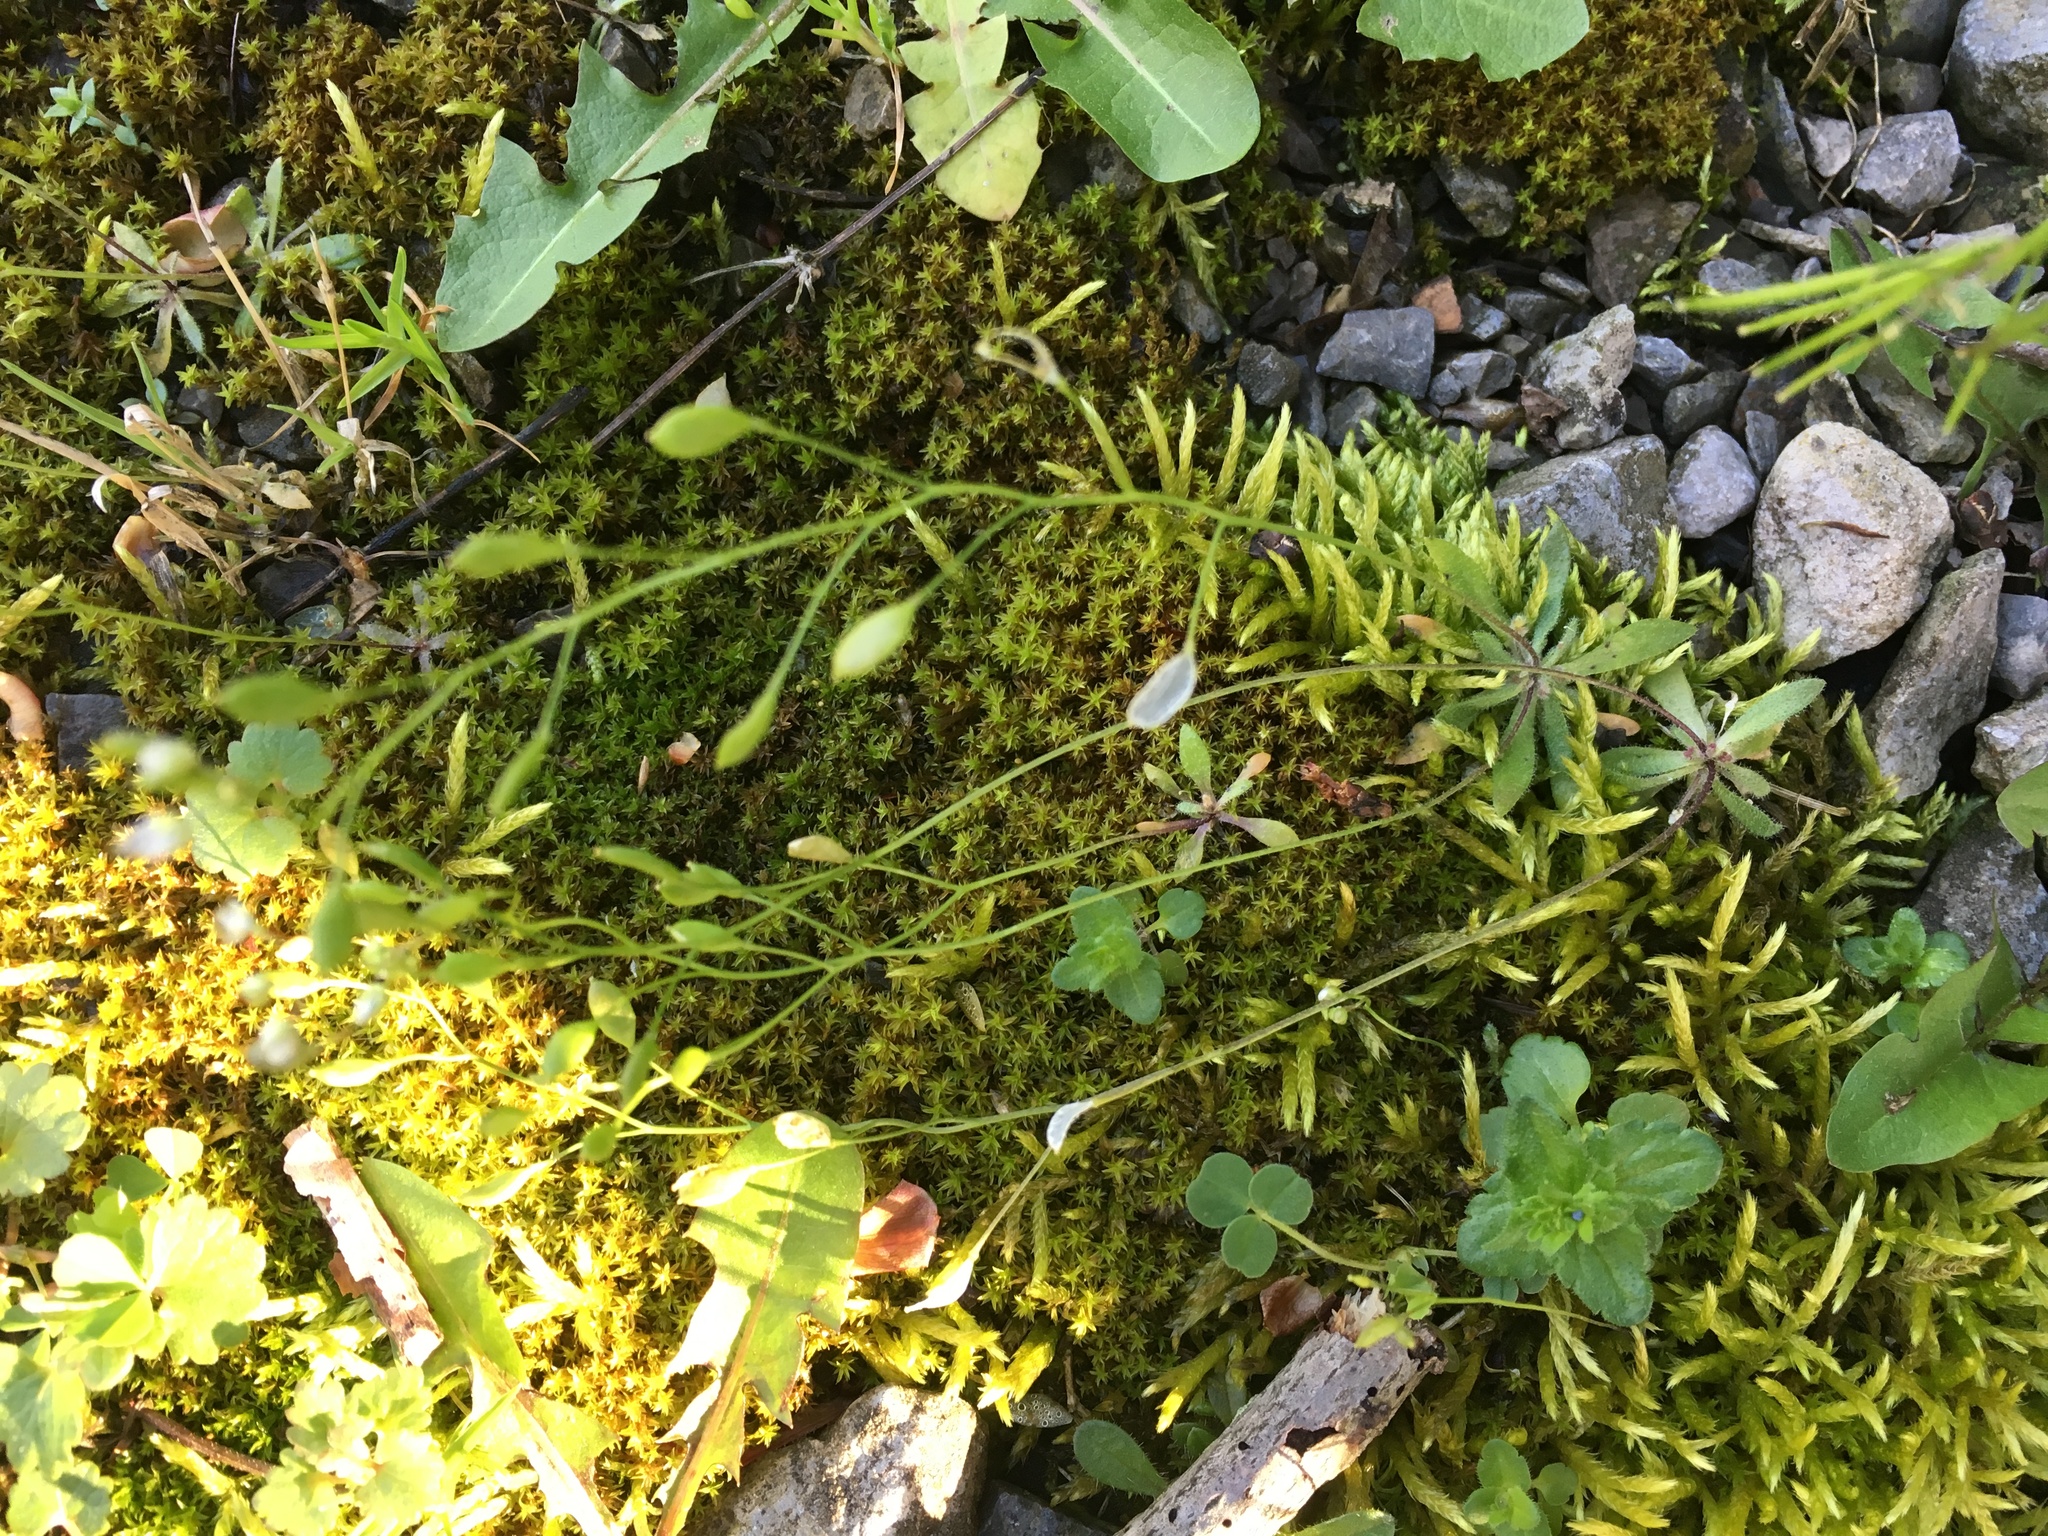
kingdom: Plantae
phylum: Tracheophyta
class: Magnoliopsida
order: Brassicales
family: Brassicaceae
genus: Draba
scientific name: Draba verna
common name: Spring draba
